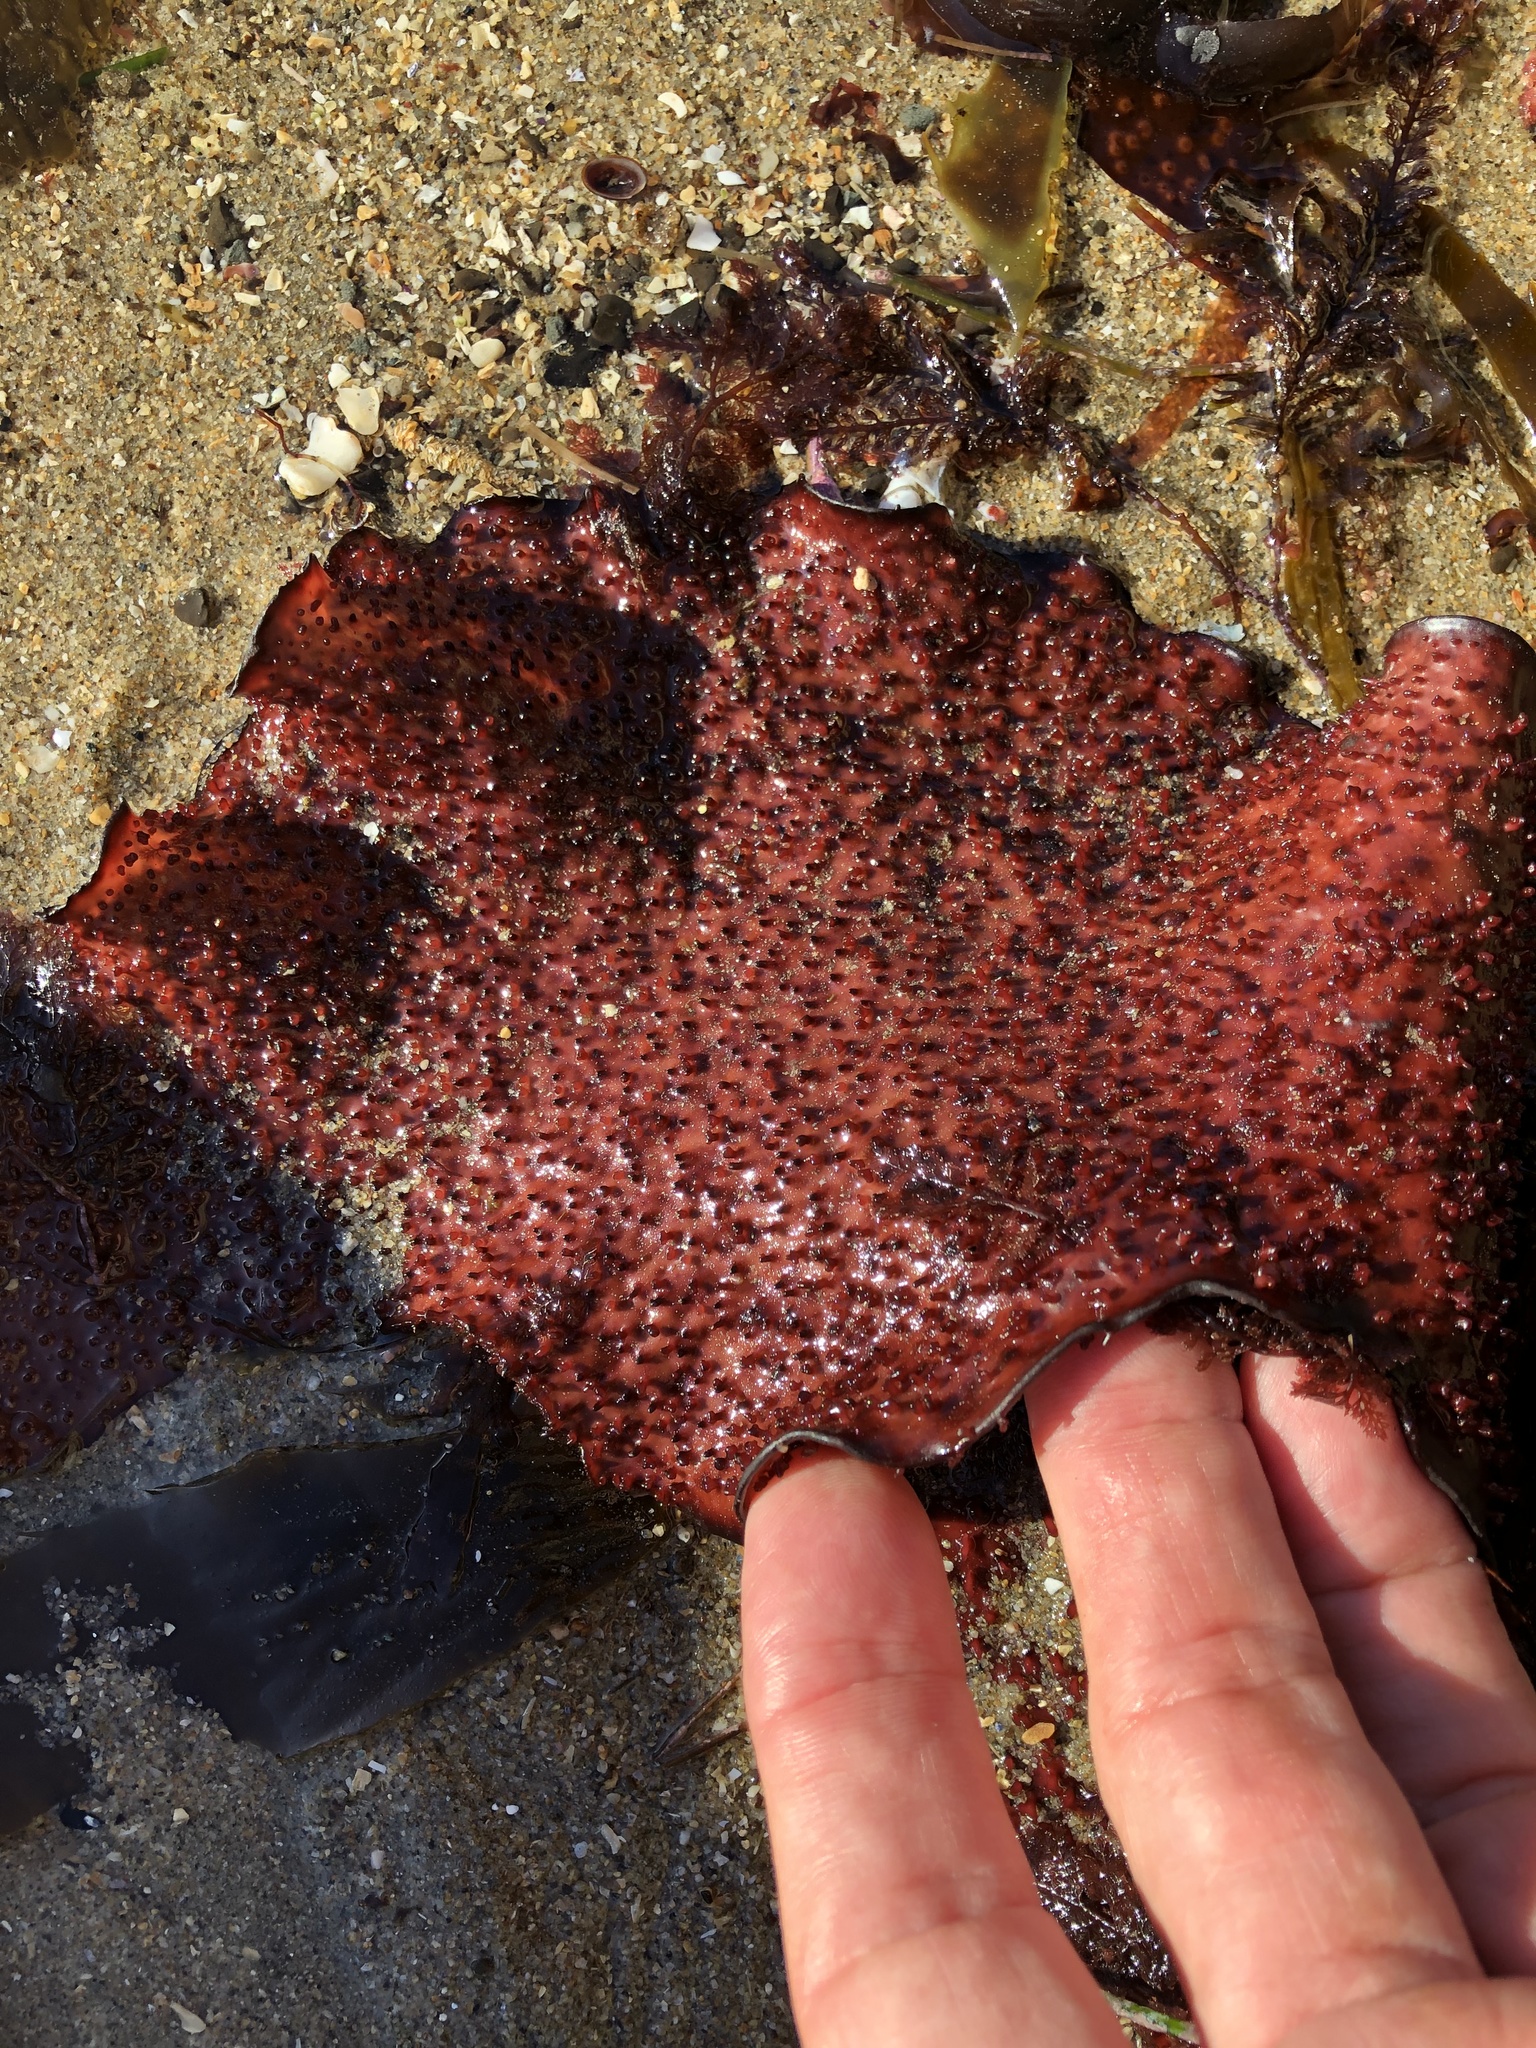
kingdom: Plantae
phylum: Rhodophyta
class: Florideophyceae
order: Gigartinales
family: Gigartinaceae
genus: Chondracanthus
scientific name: Chondracanthus exasperatus
